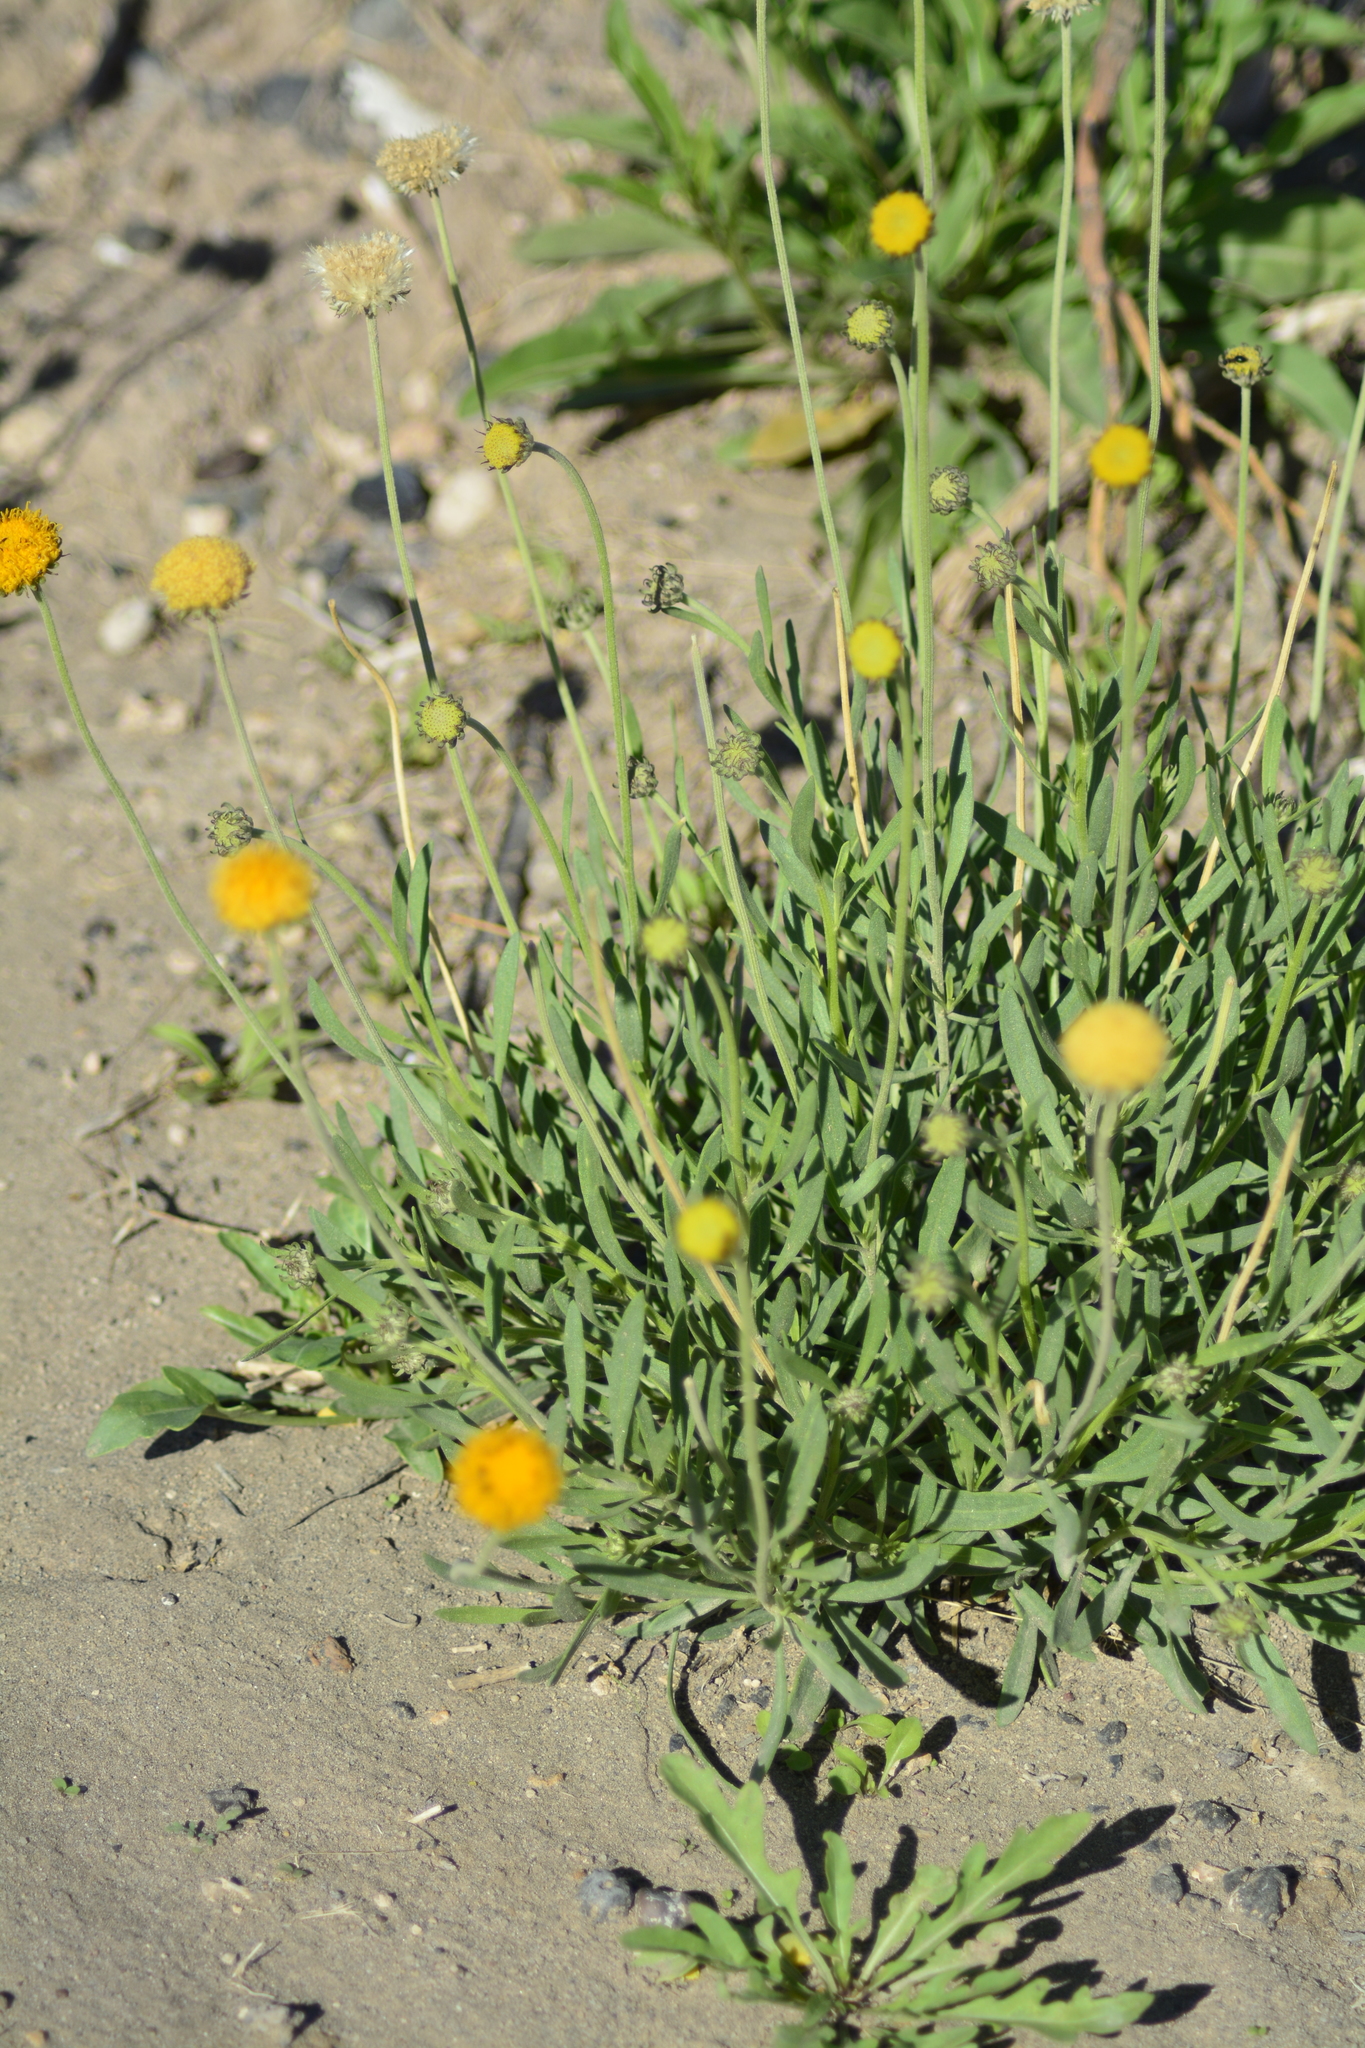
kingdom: Plantae
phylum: Tracheophyta
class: Magnoliopsida
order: Asterales
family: Asteraceae
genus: Gaillardia
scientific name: Gaillardia megapotamica
